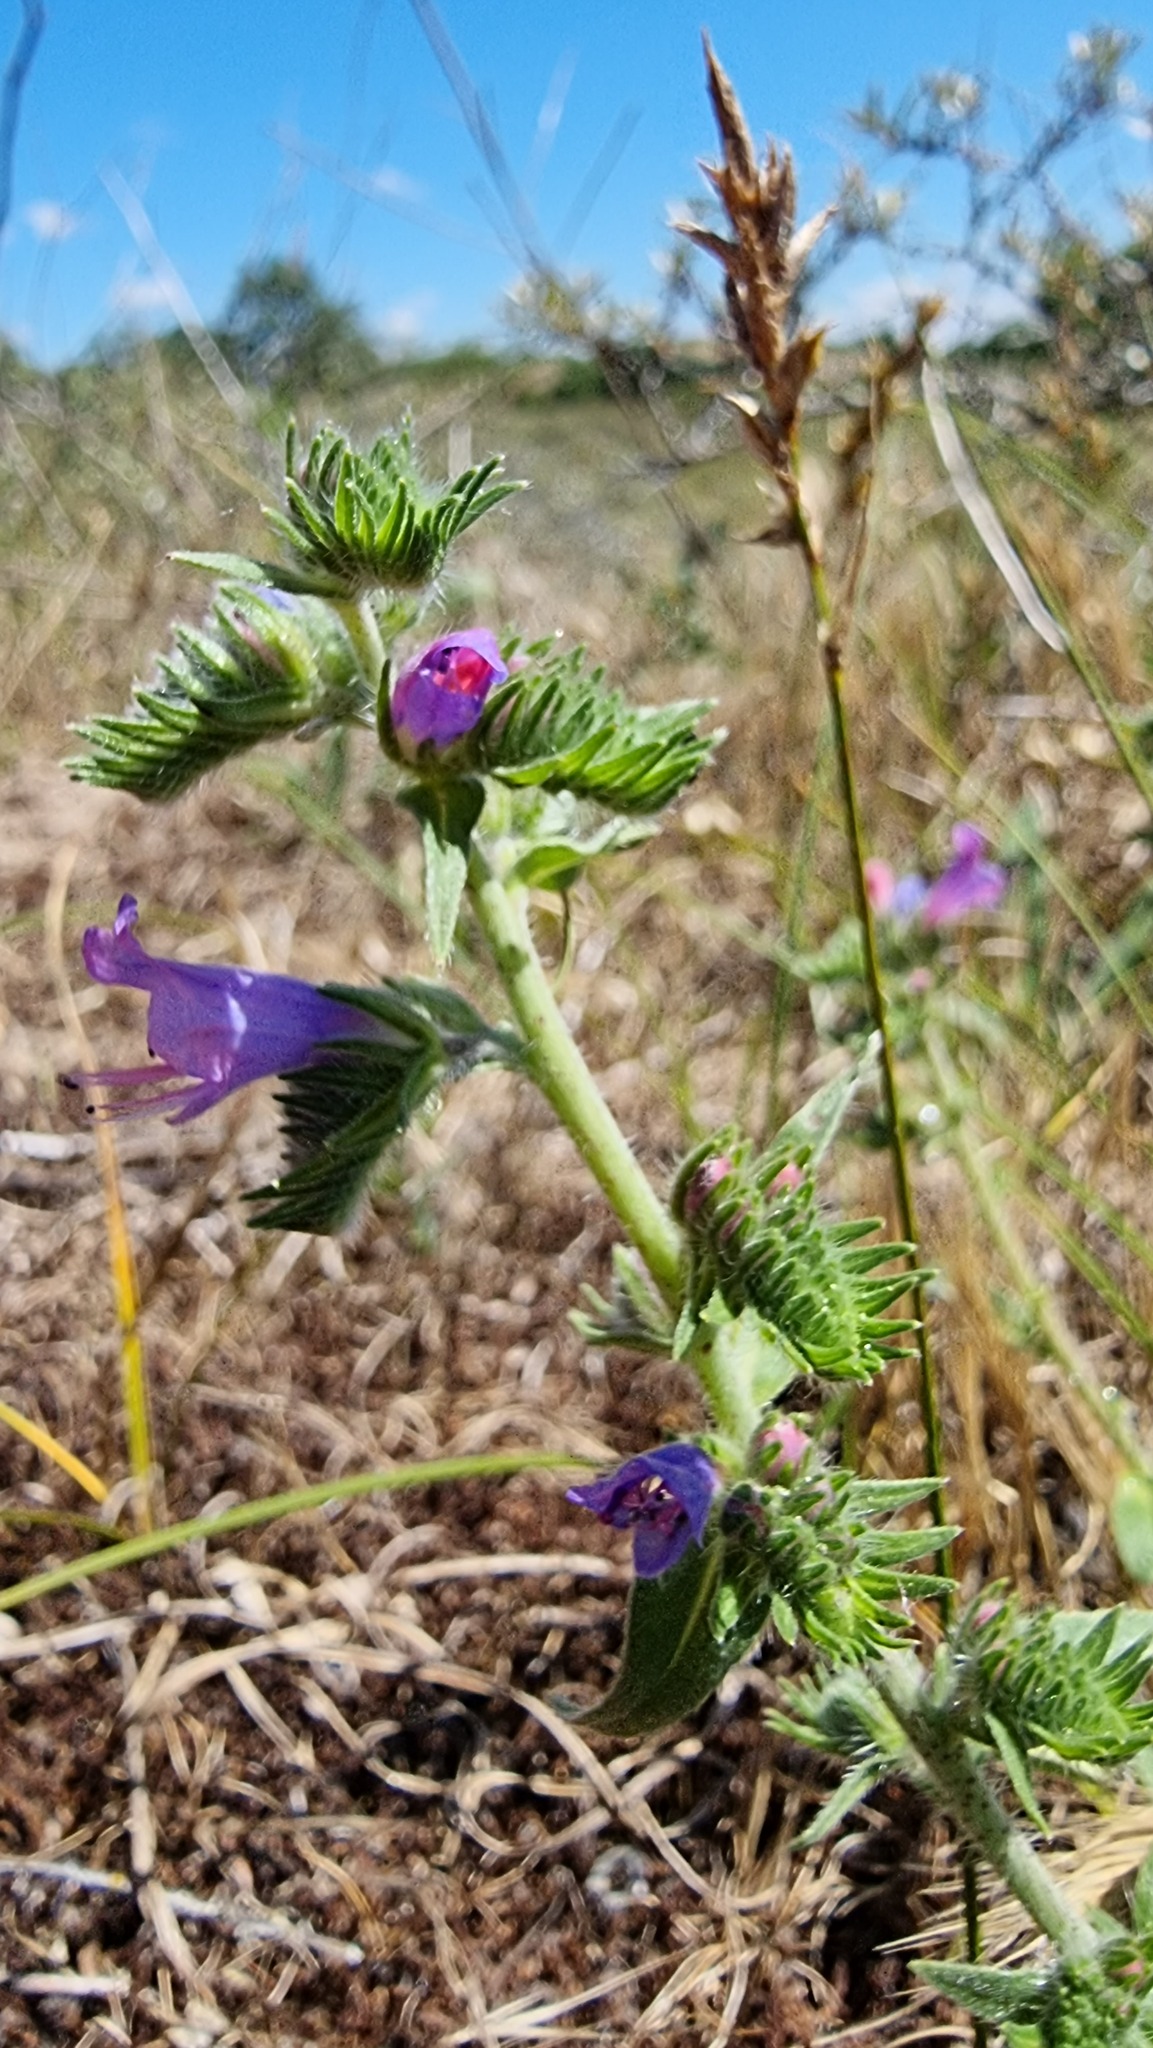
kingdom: Plantae
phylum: Tracheophyta
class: Magnoliopsida
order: Boraginales
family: Boraginaceae
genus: Echium
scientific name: Echium vulgare
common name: Common viper's bugloss
